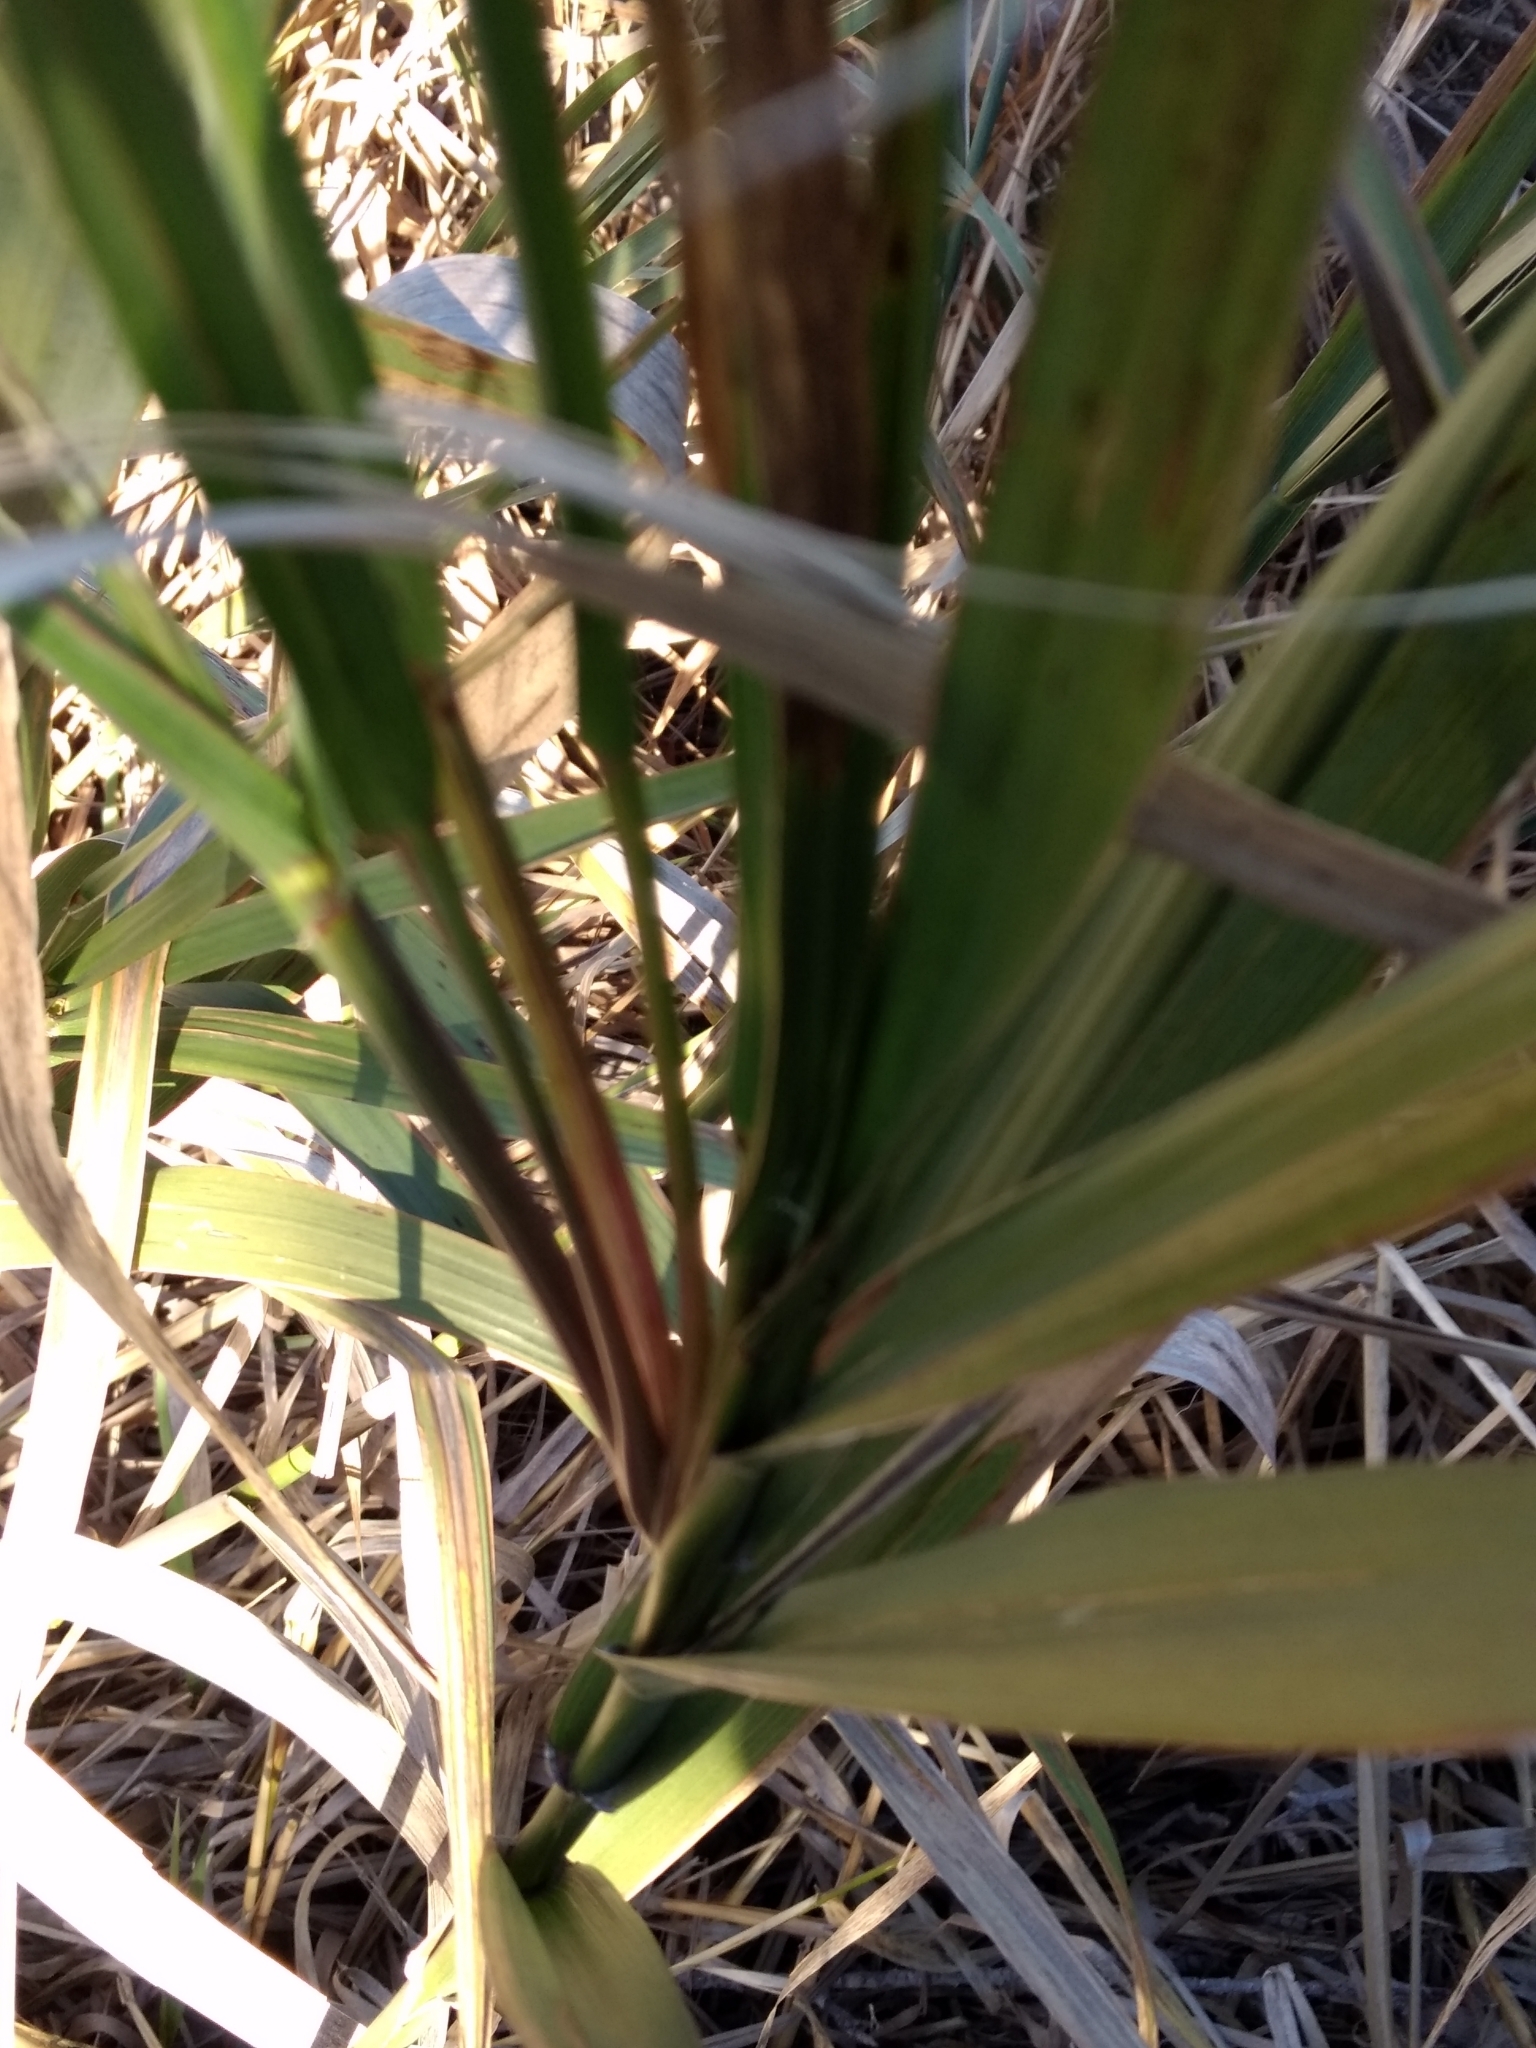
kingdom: Plantae
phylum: Tracheophyta
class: Liliopsida
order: Poales
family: Poaceae
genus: Leymus
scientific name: Leymus condensatus
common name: Giant wild rye
